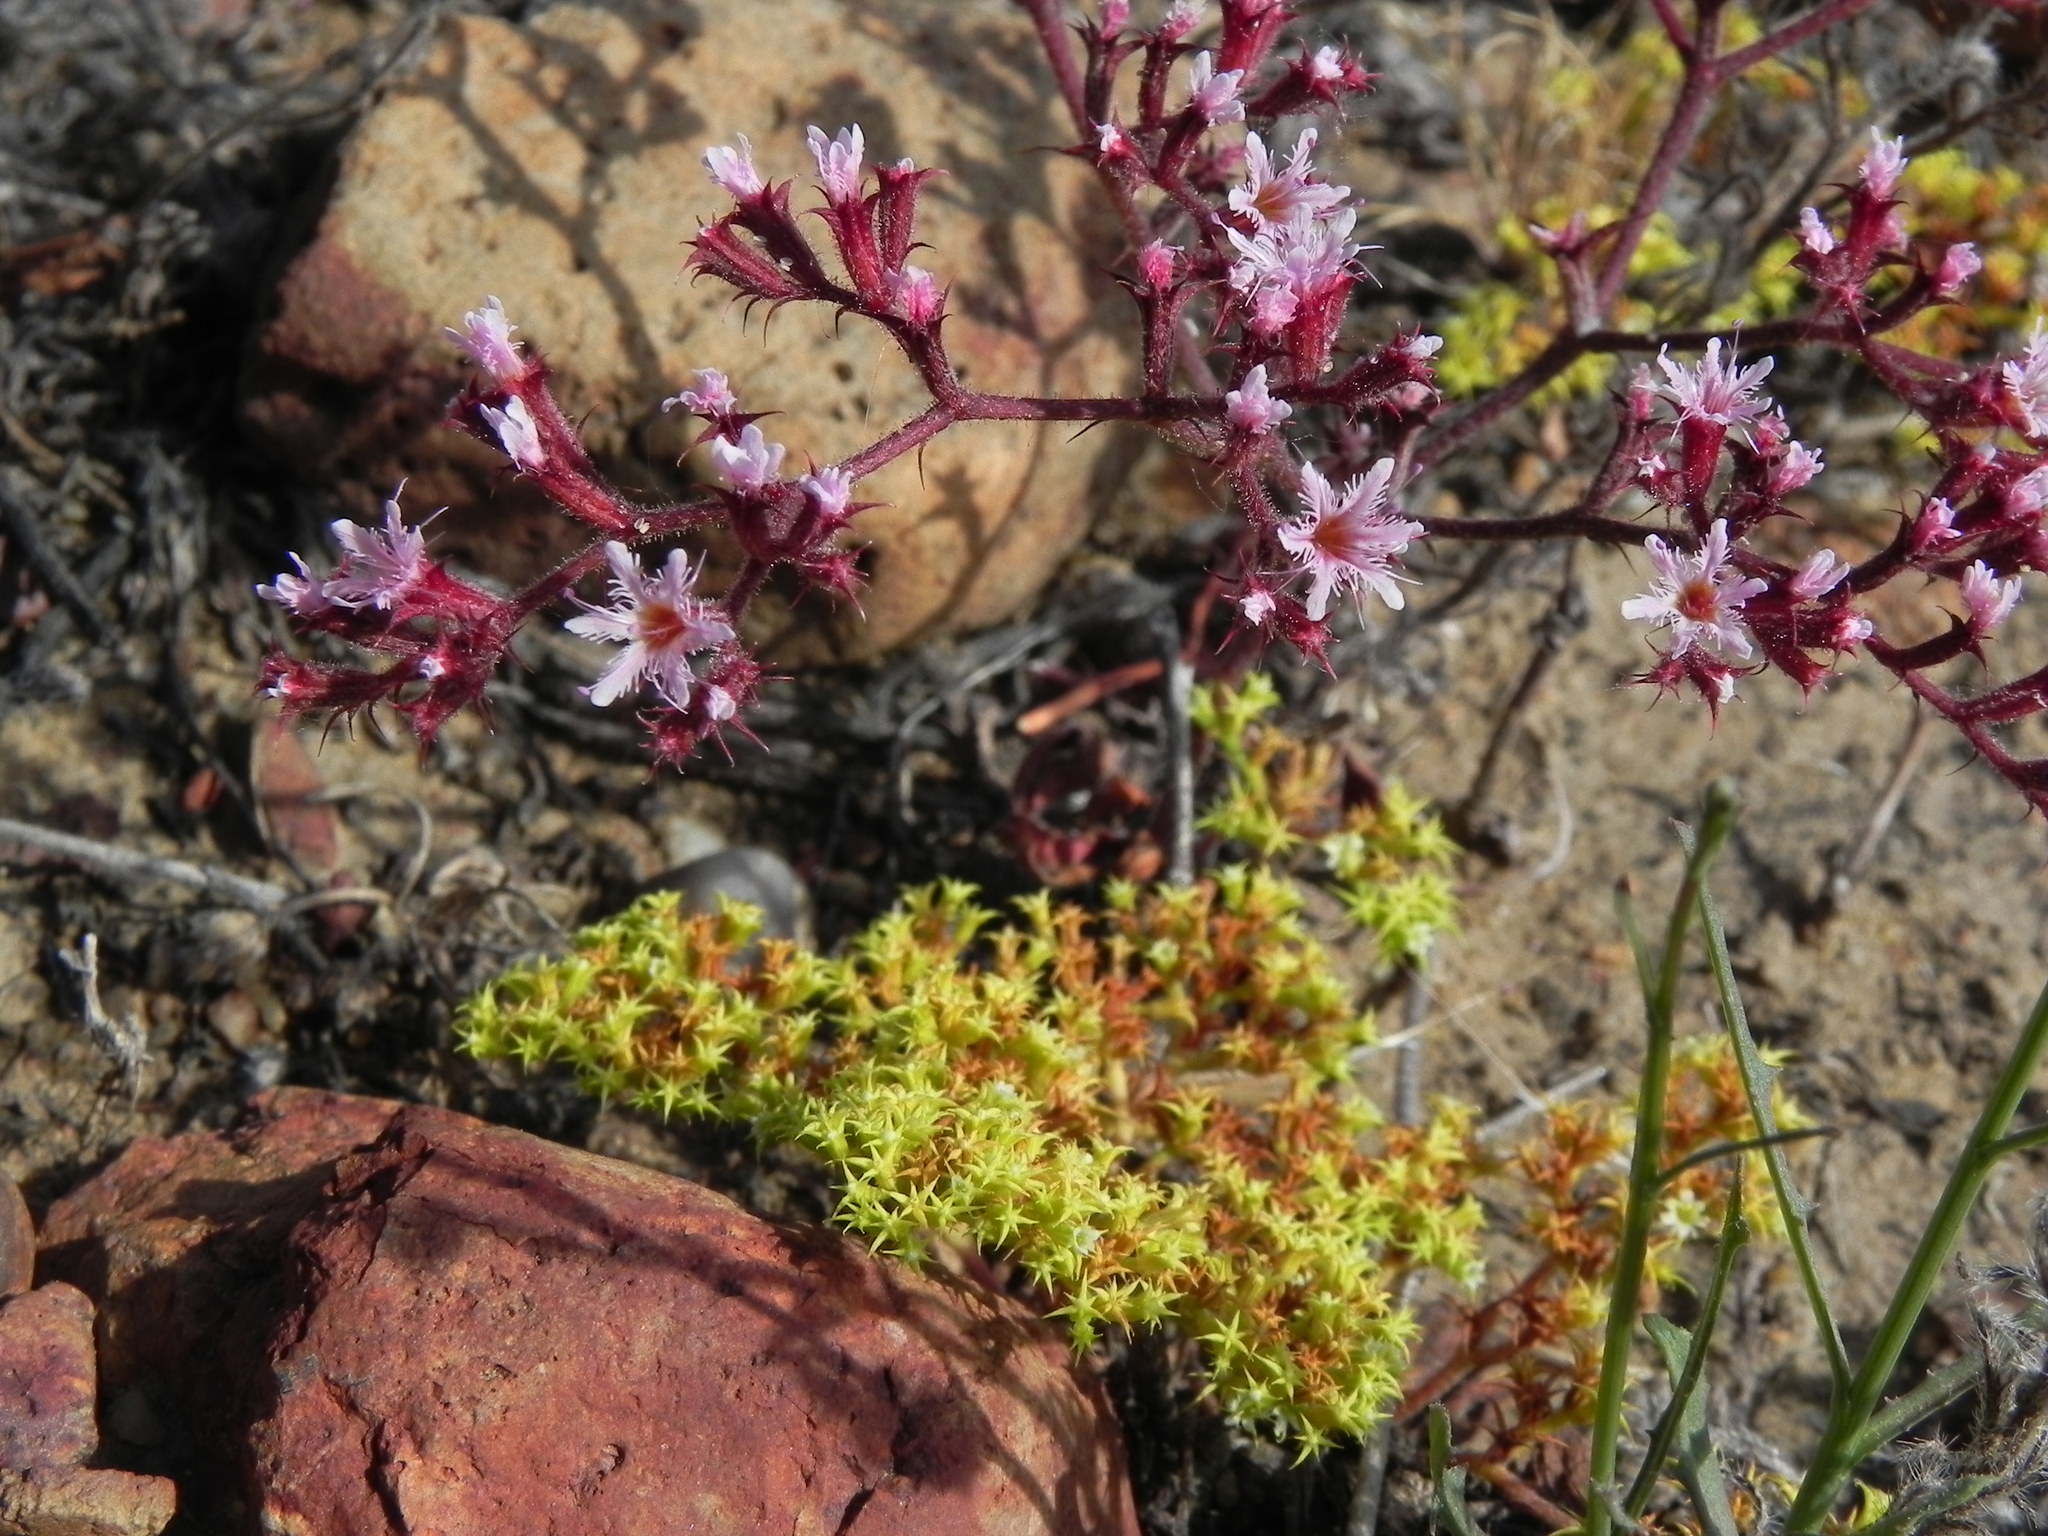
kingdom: Plantae
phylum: Tracheophyta
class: Magnoliopsida
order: Caryophyllales
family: Polygonaceae
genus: Chorizanthe
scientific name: Chorizanthe fimbriata
